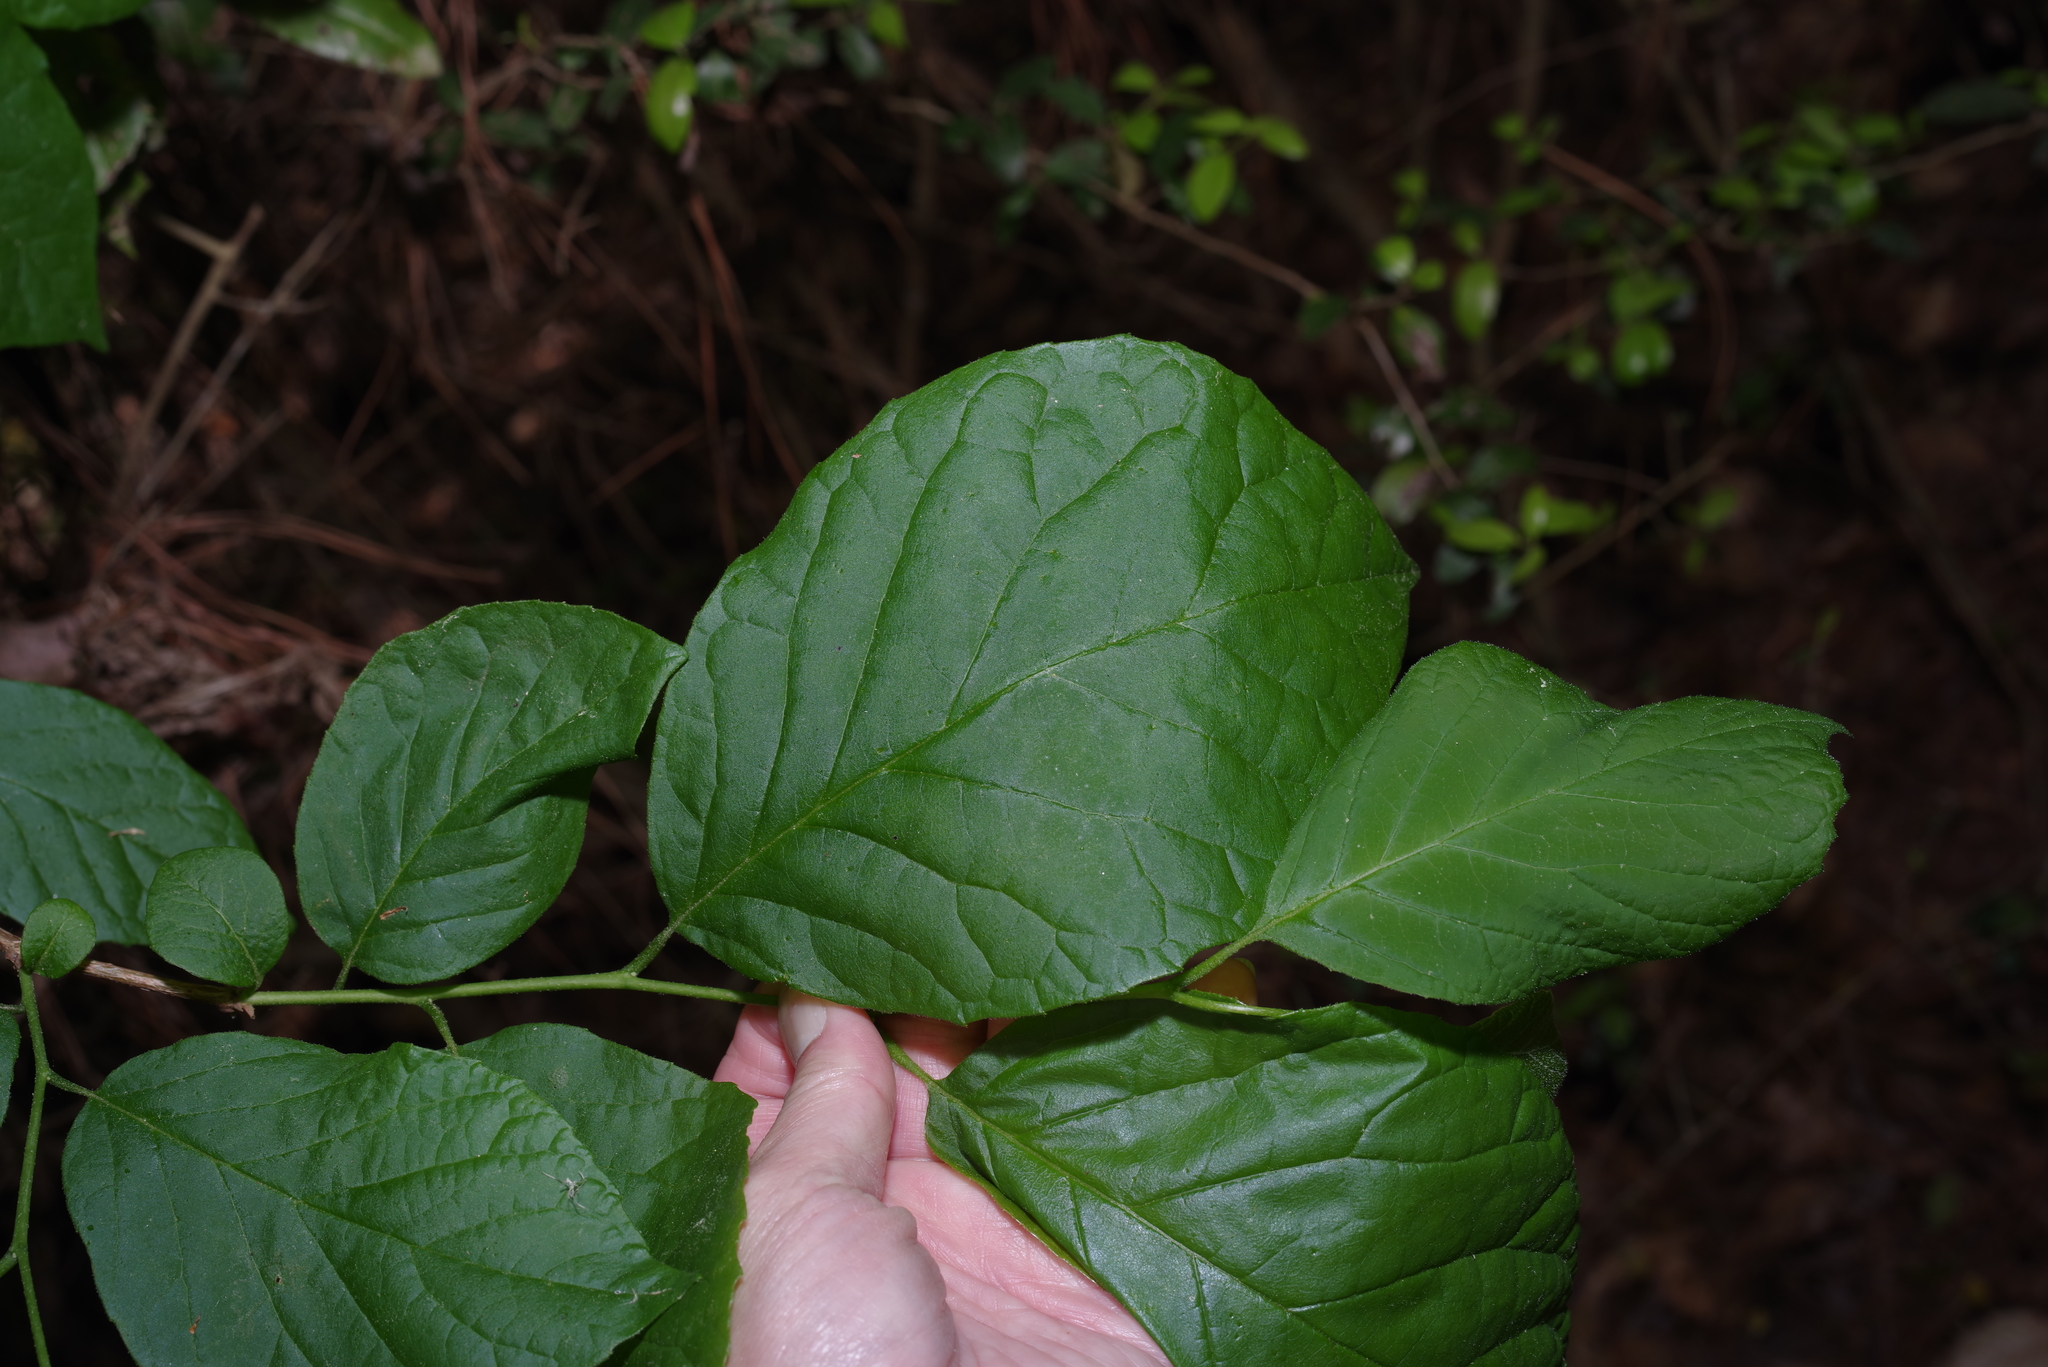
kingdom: Plantae
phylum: Tracheophyta
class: Magnoliopsida
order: Ericales
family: Styracaceae
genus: Styrax
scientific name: Styrax grandifolius
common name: Big-leaf snowbell
